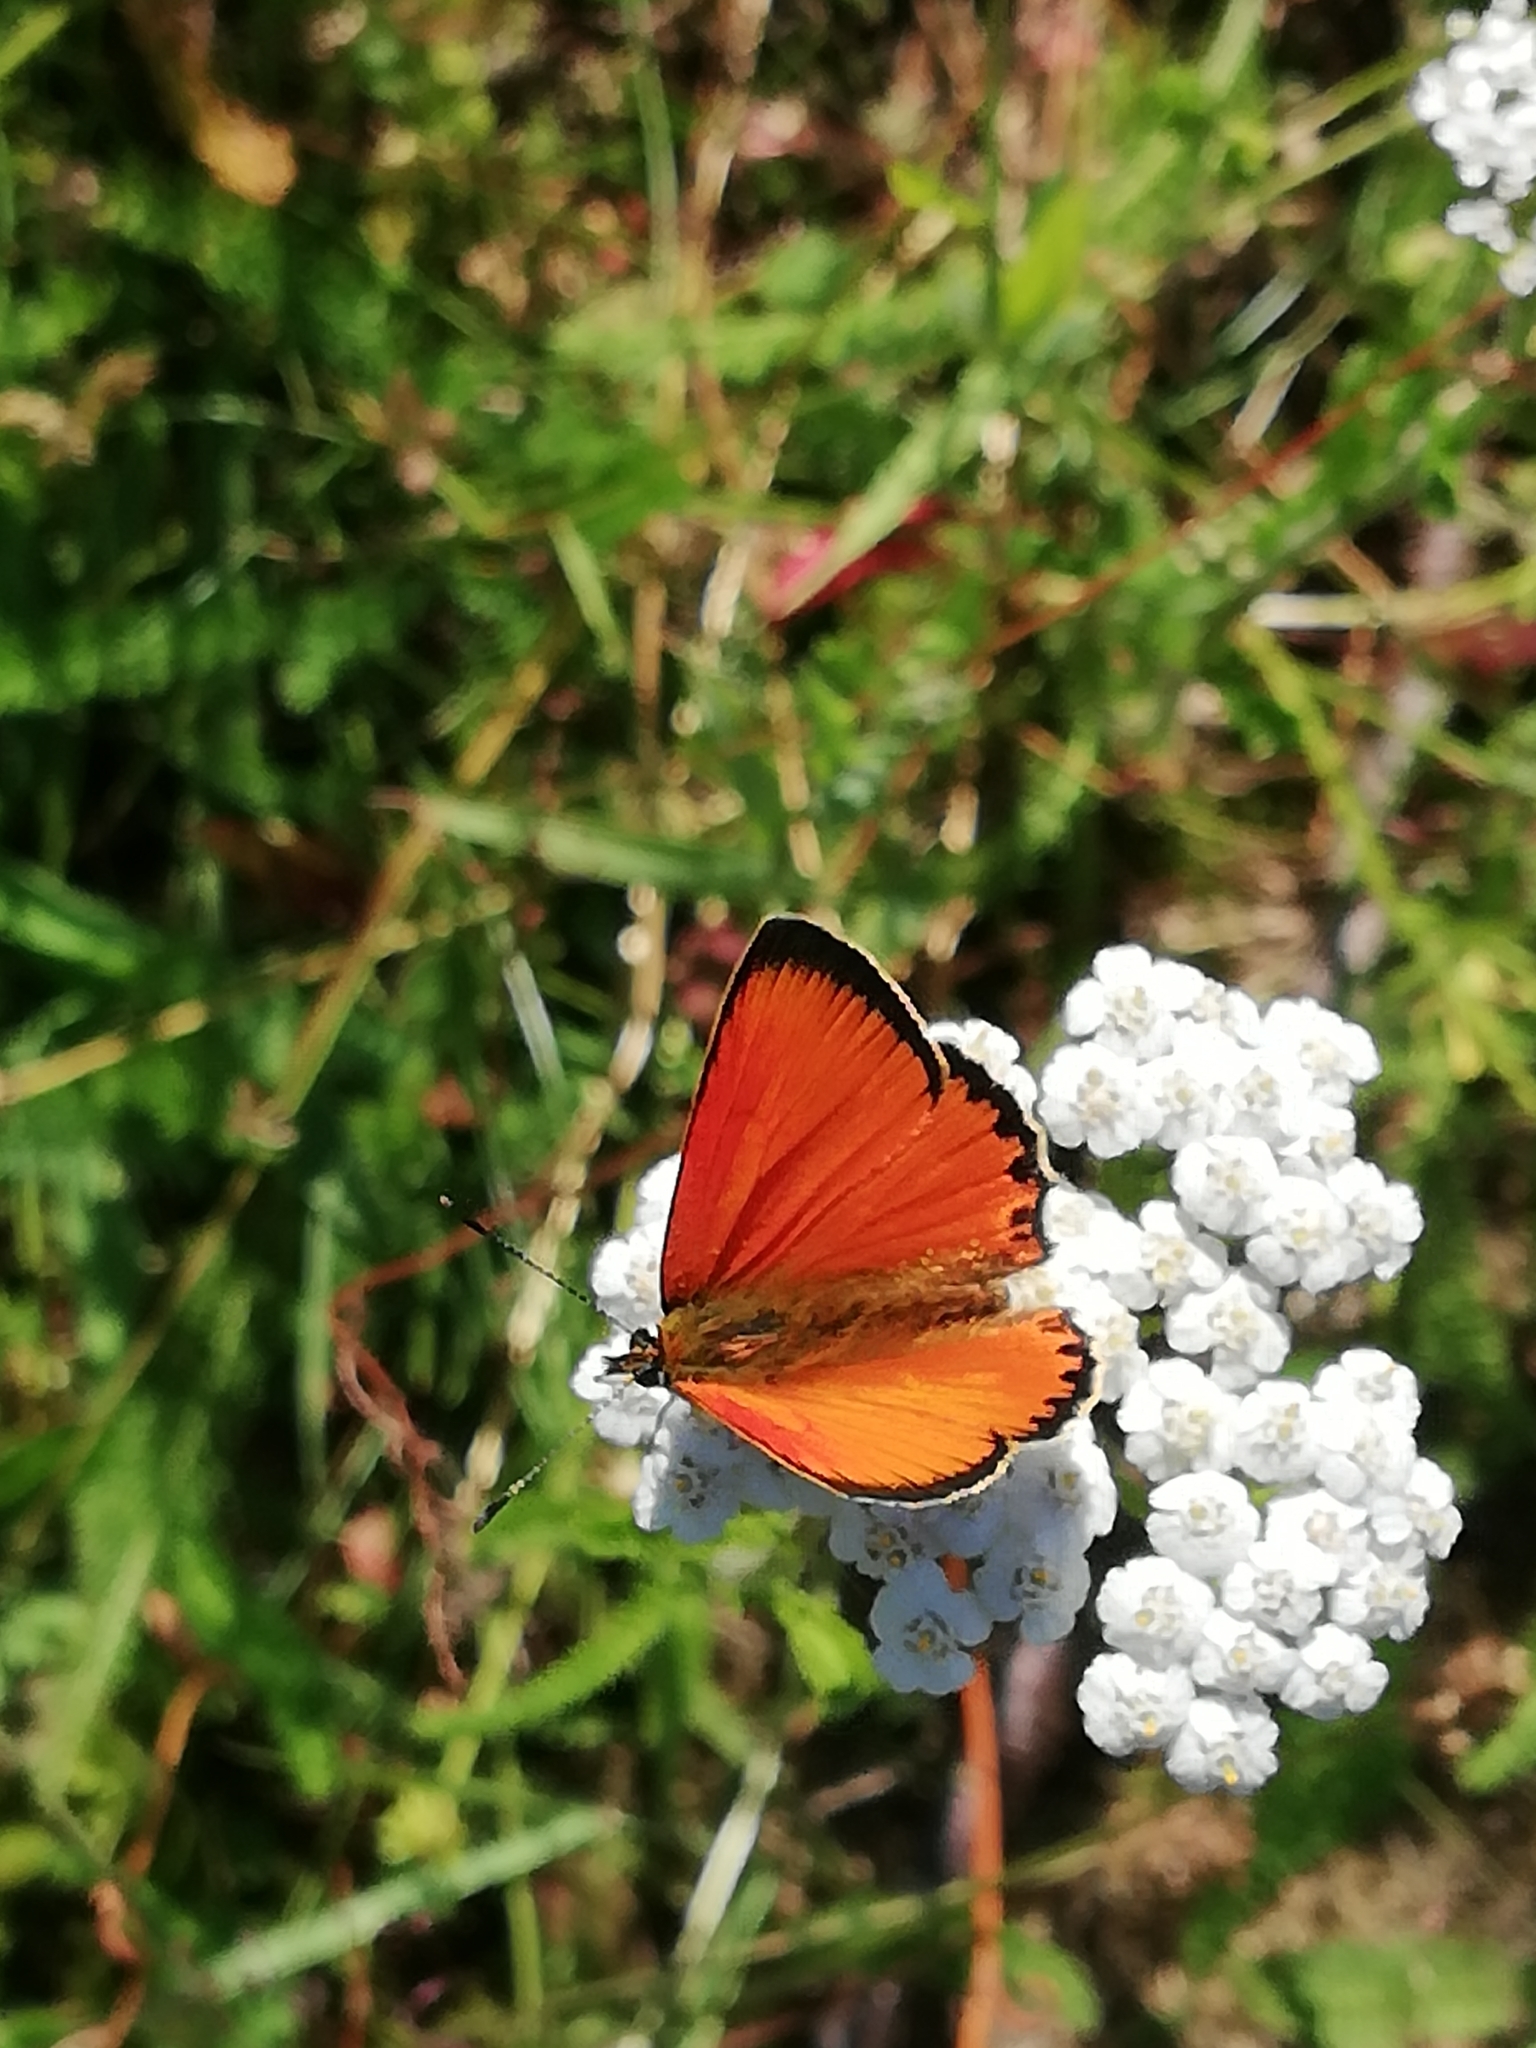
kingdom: Animalia
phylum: Arthropoda
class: Insecta
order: Lepidoptera
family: Lycaenidae
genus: Lycaena
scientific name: Lycaena virgaureae
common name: Scarce copper
